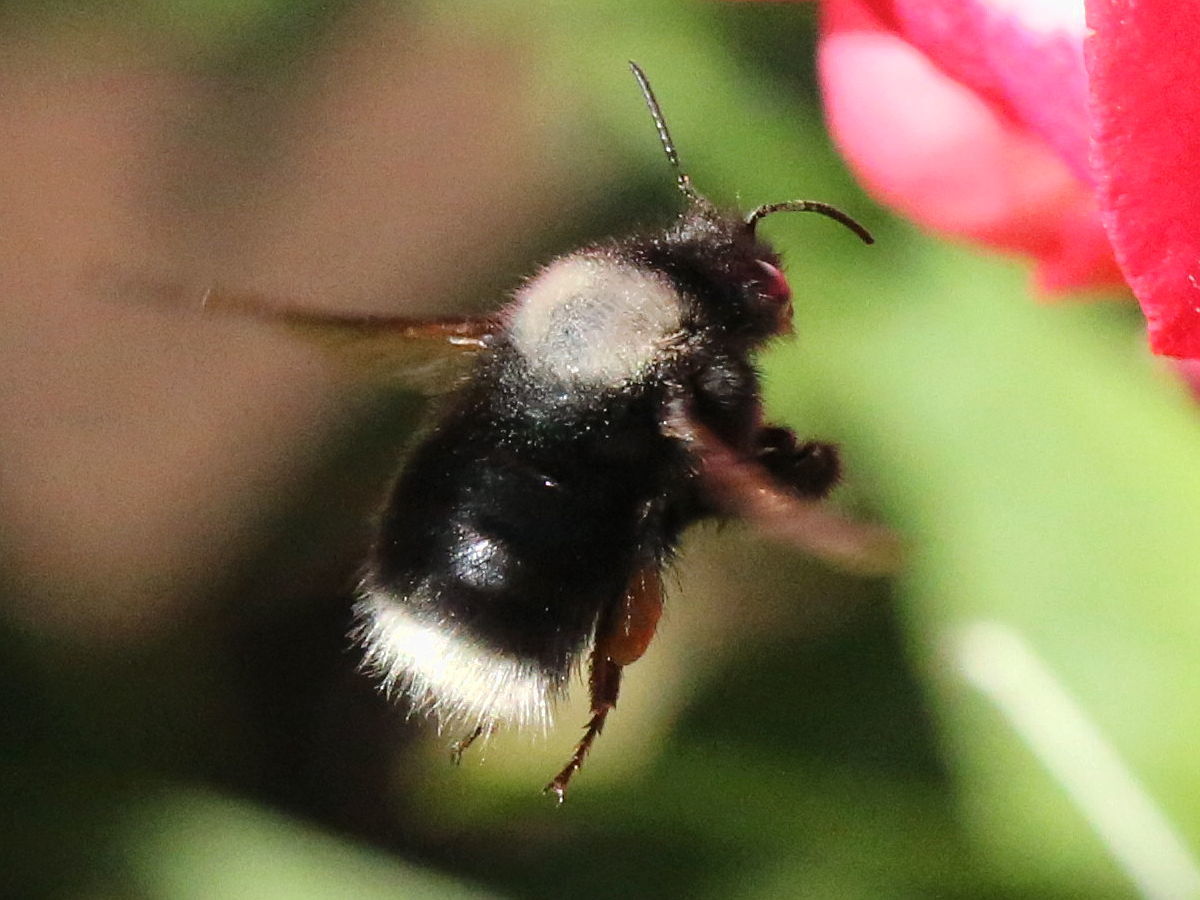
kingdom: Animalia
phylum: Arthropoda
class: Insecta
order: Hymenoptera
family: Apidae
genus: Bombus
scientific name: Bombus funebris
